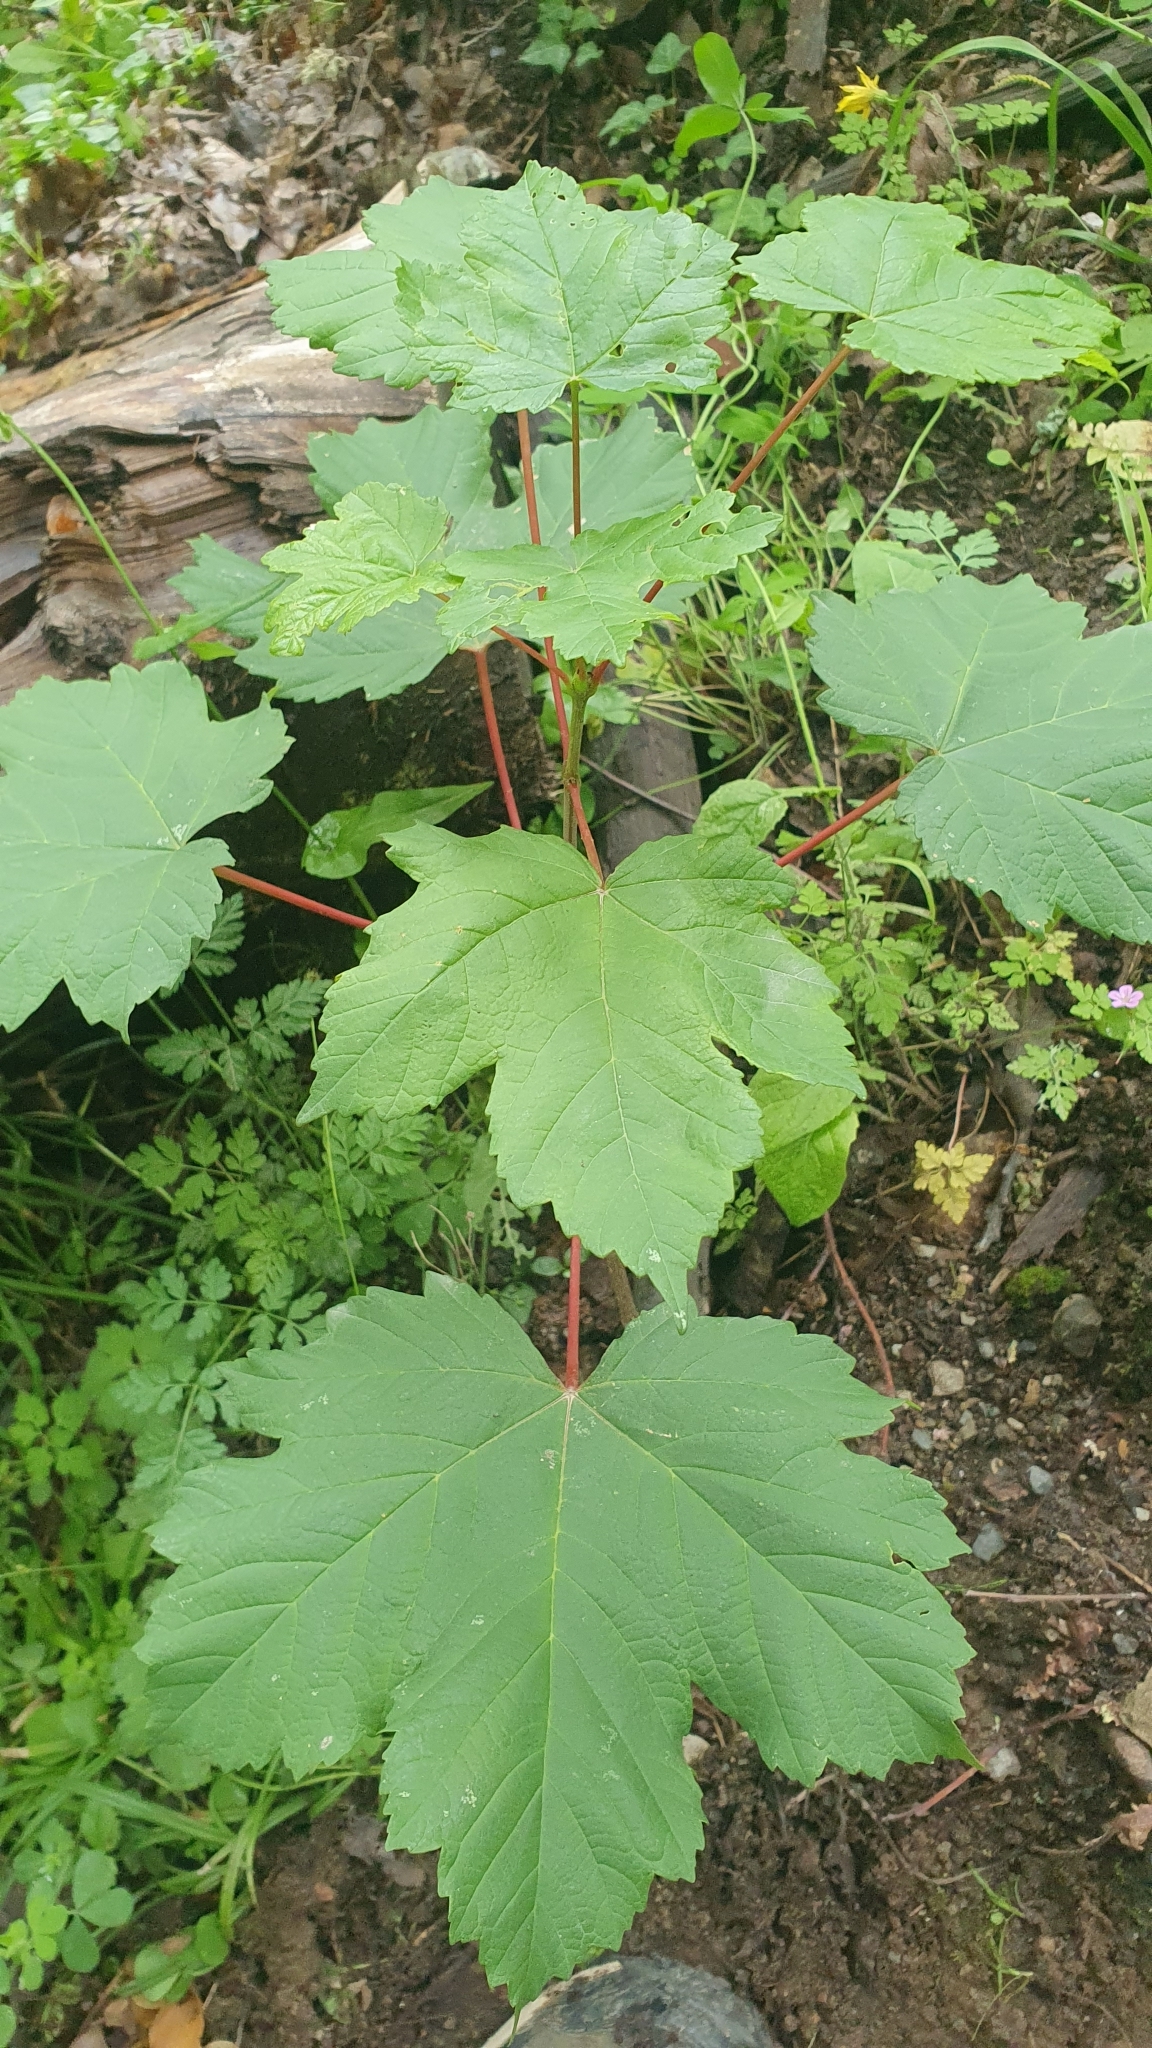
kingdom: Plantae
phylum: Tracheophyta
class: Magnoliopsida
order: Sapindales
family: Sapindaceae
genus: Acer
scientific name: Acer pseudoplatanus
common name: Sycamore
